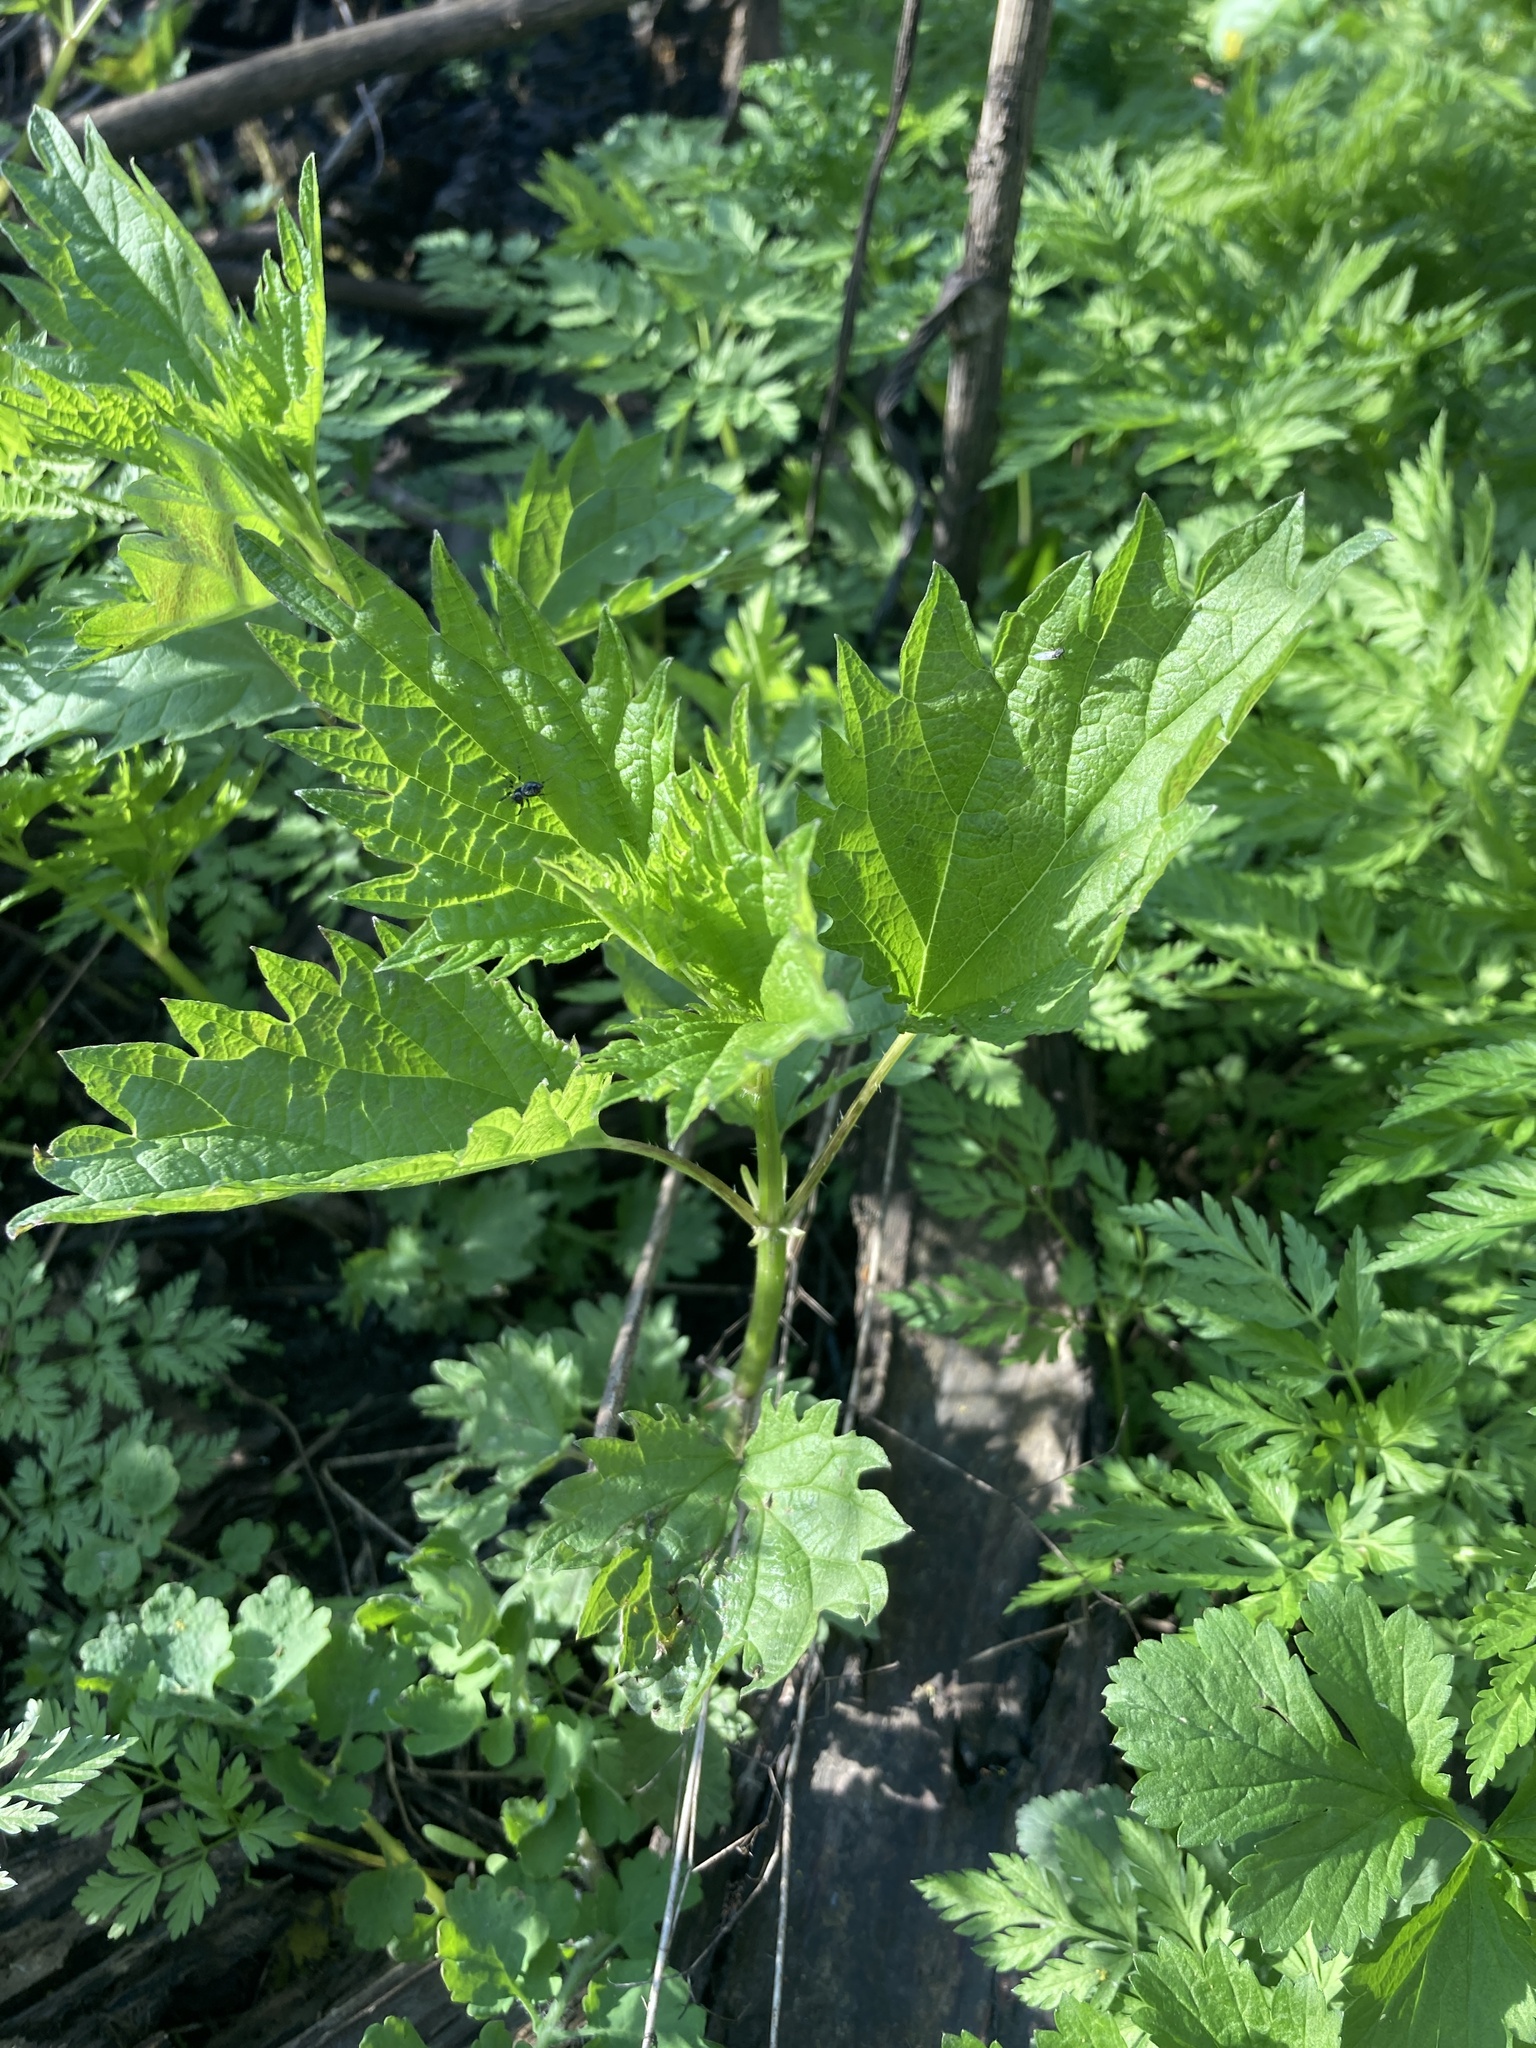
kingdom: Plantae
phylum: Tracheophyta
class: Magnoliopsida
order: Rosales
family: Urticaceae
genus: Urtica
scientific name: Urtica dioica
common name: Common nettle
